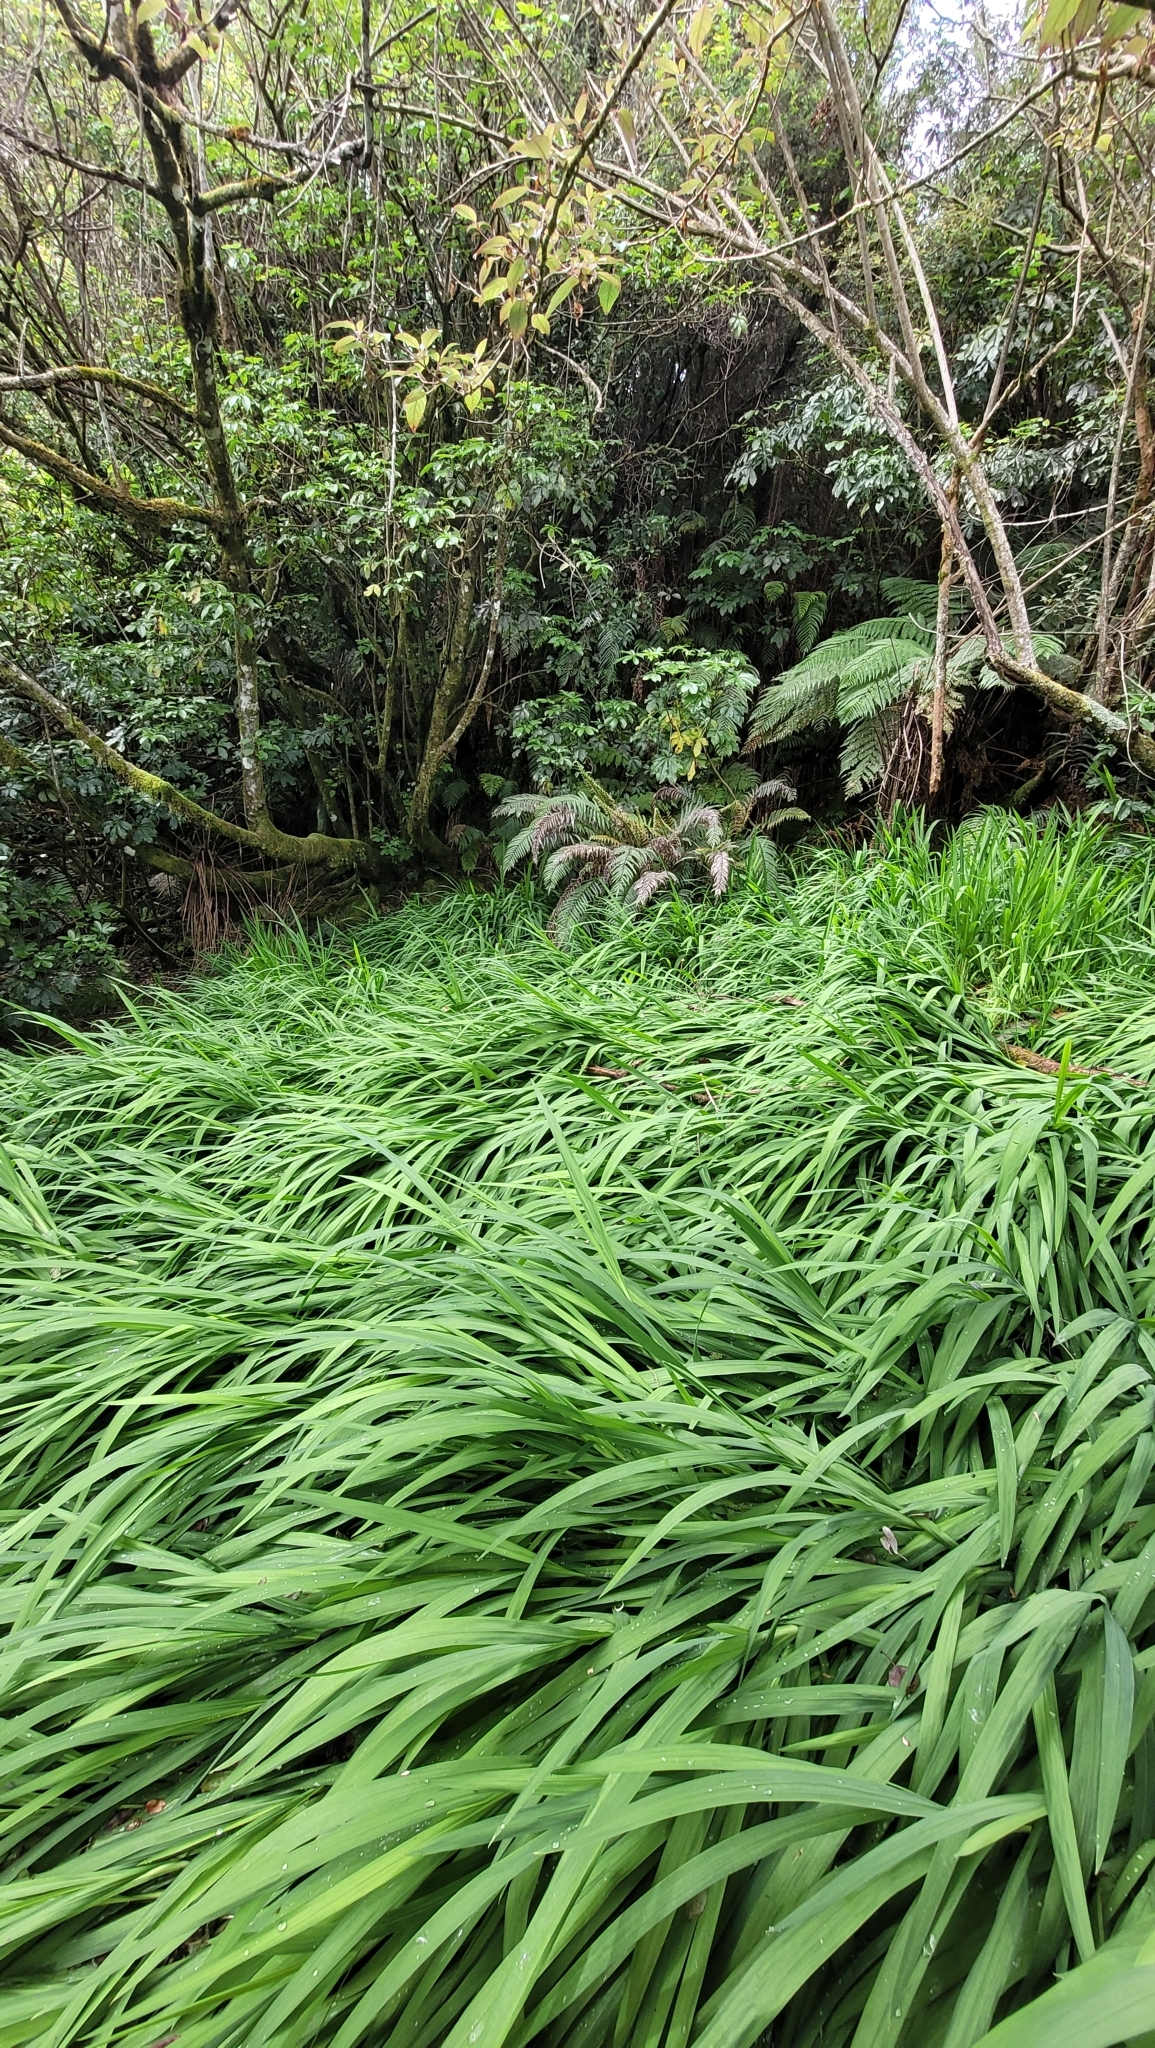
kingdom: Plantae
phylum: Tracheophyta
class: Liliopsida
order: Asparagales
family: Iridaceae
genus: Crocosmia
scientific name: Crocosmia crocosmiiflora
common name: Montbretia
